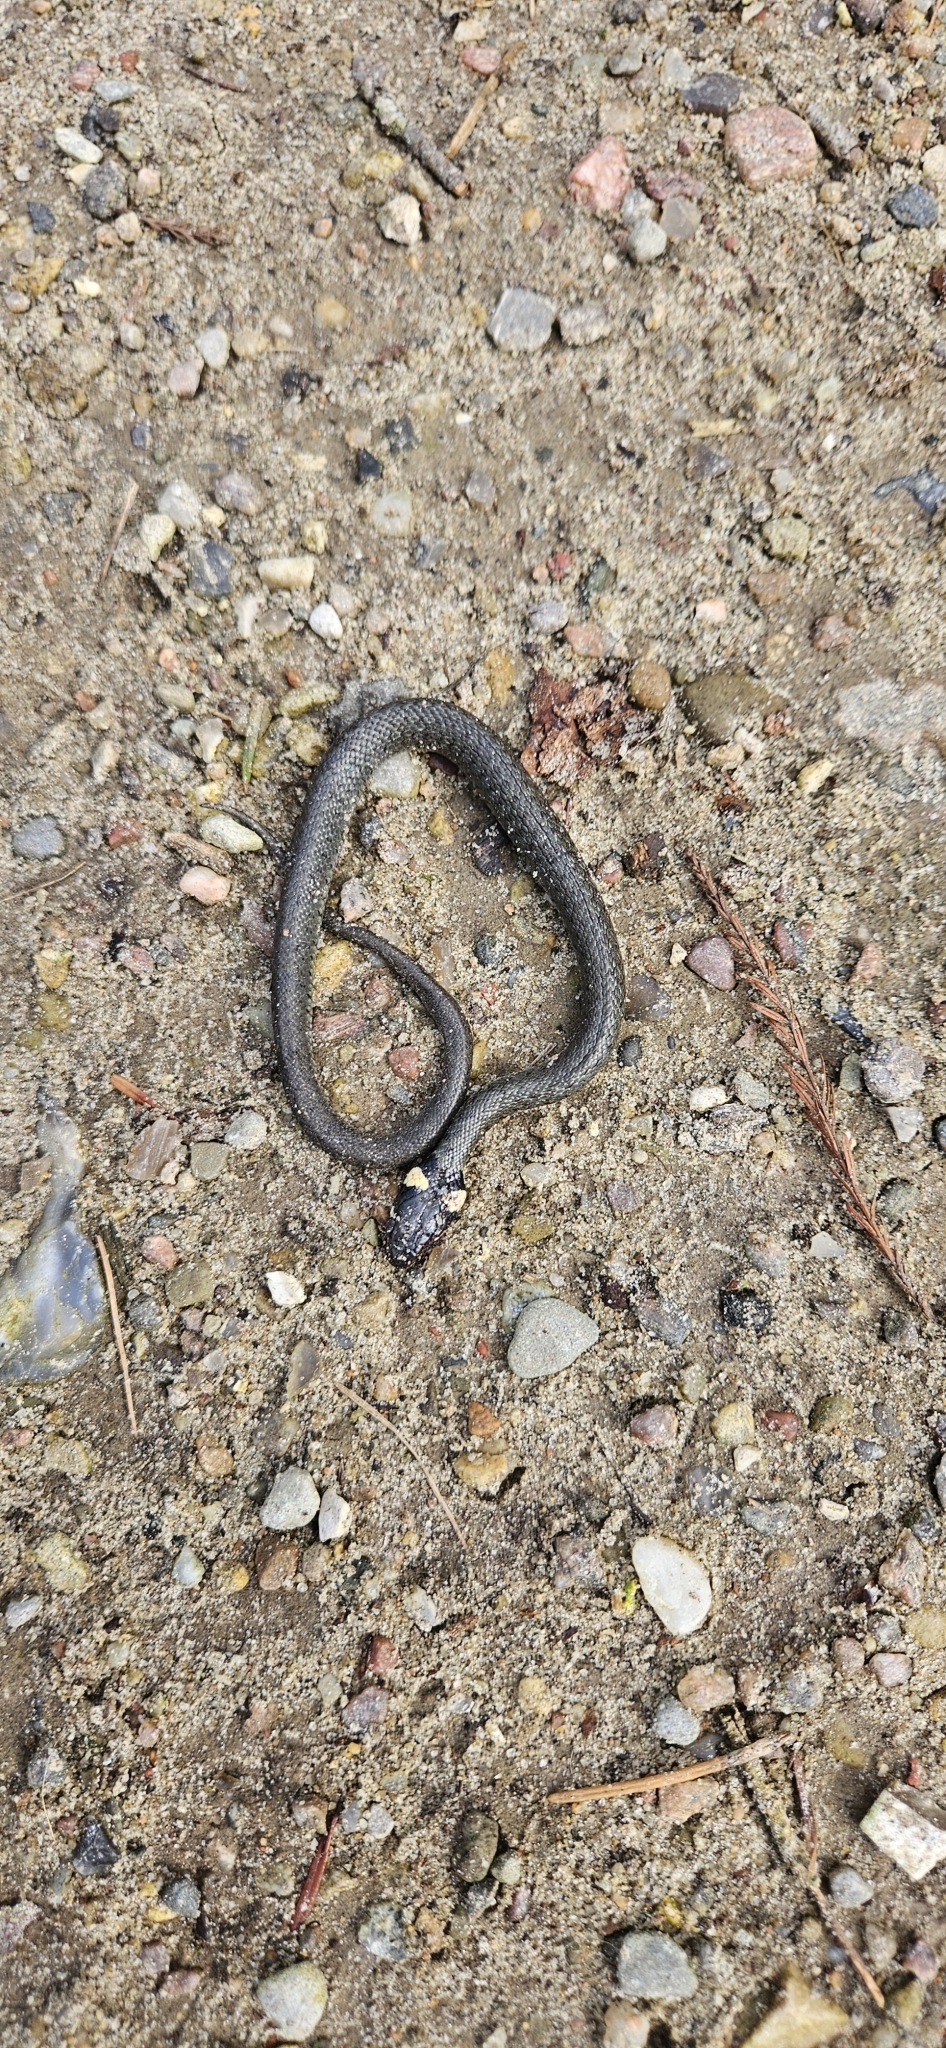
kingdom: Animalia
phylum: Chordata
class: Squamata
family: Colubridae
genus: Natrix
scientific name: Natrix natrix
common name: Grass snake
